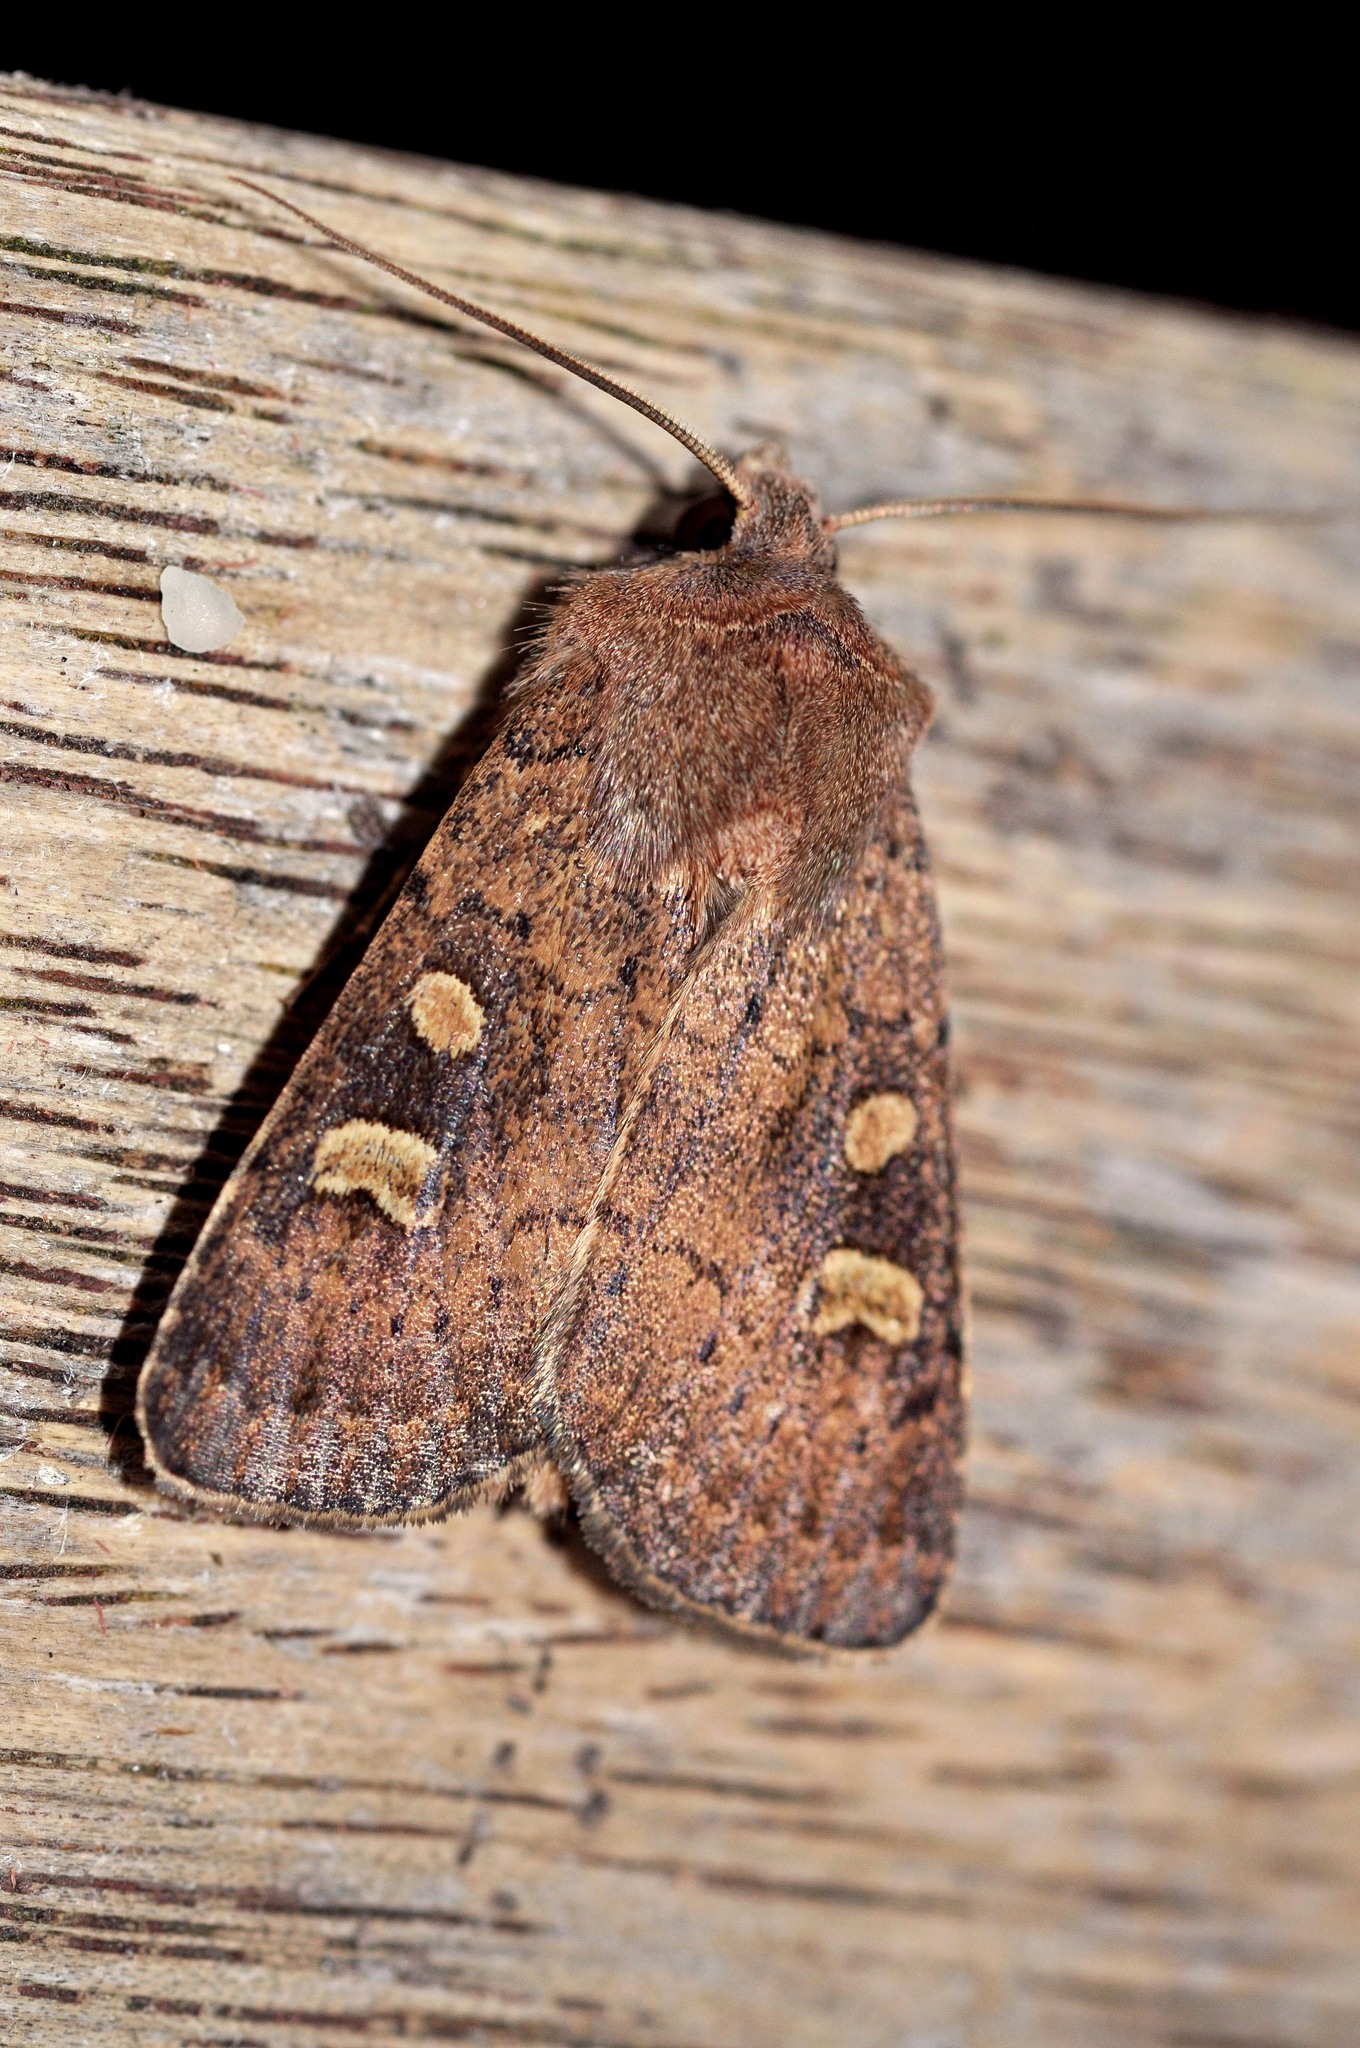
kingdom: Animalia
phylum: Arthropoda
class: Insecta
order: Lepidoptera
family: Noctuidae
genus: Xestia
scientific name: Xestia xanthographa
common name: Square-spot rustic
